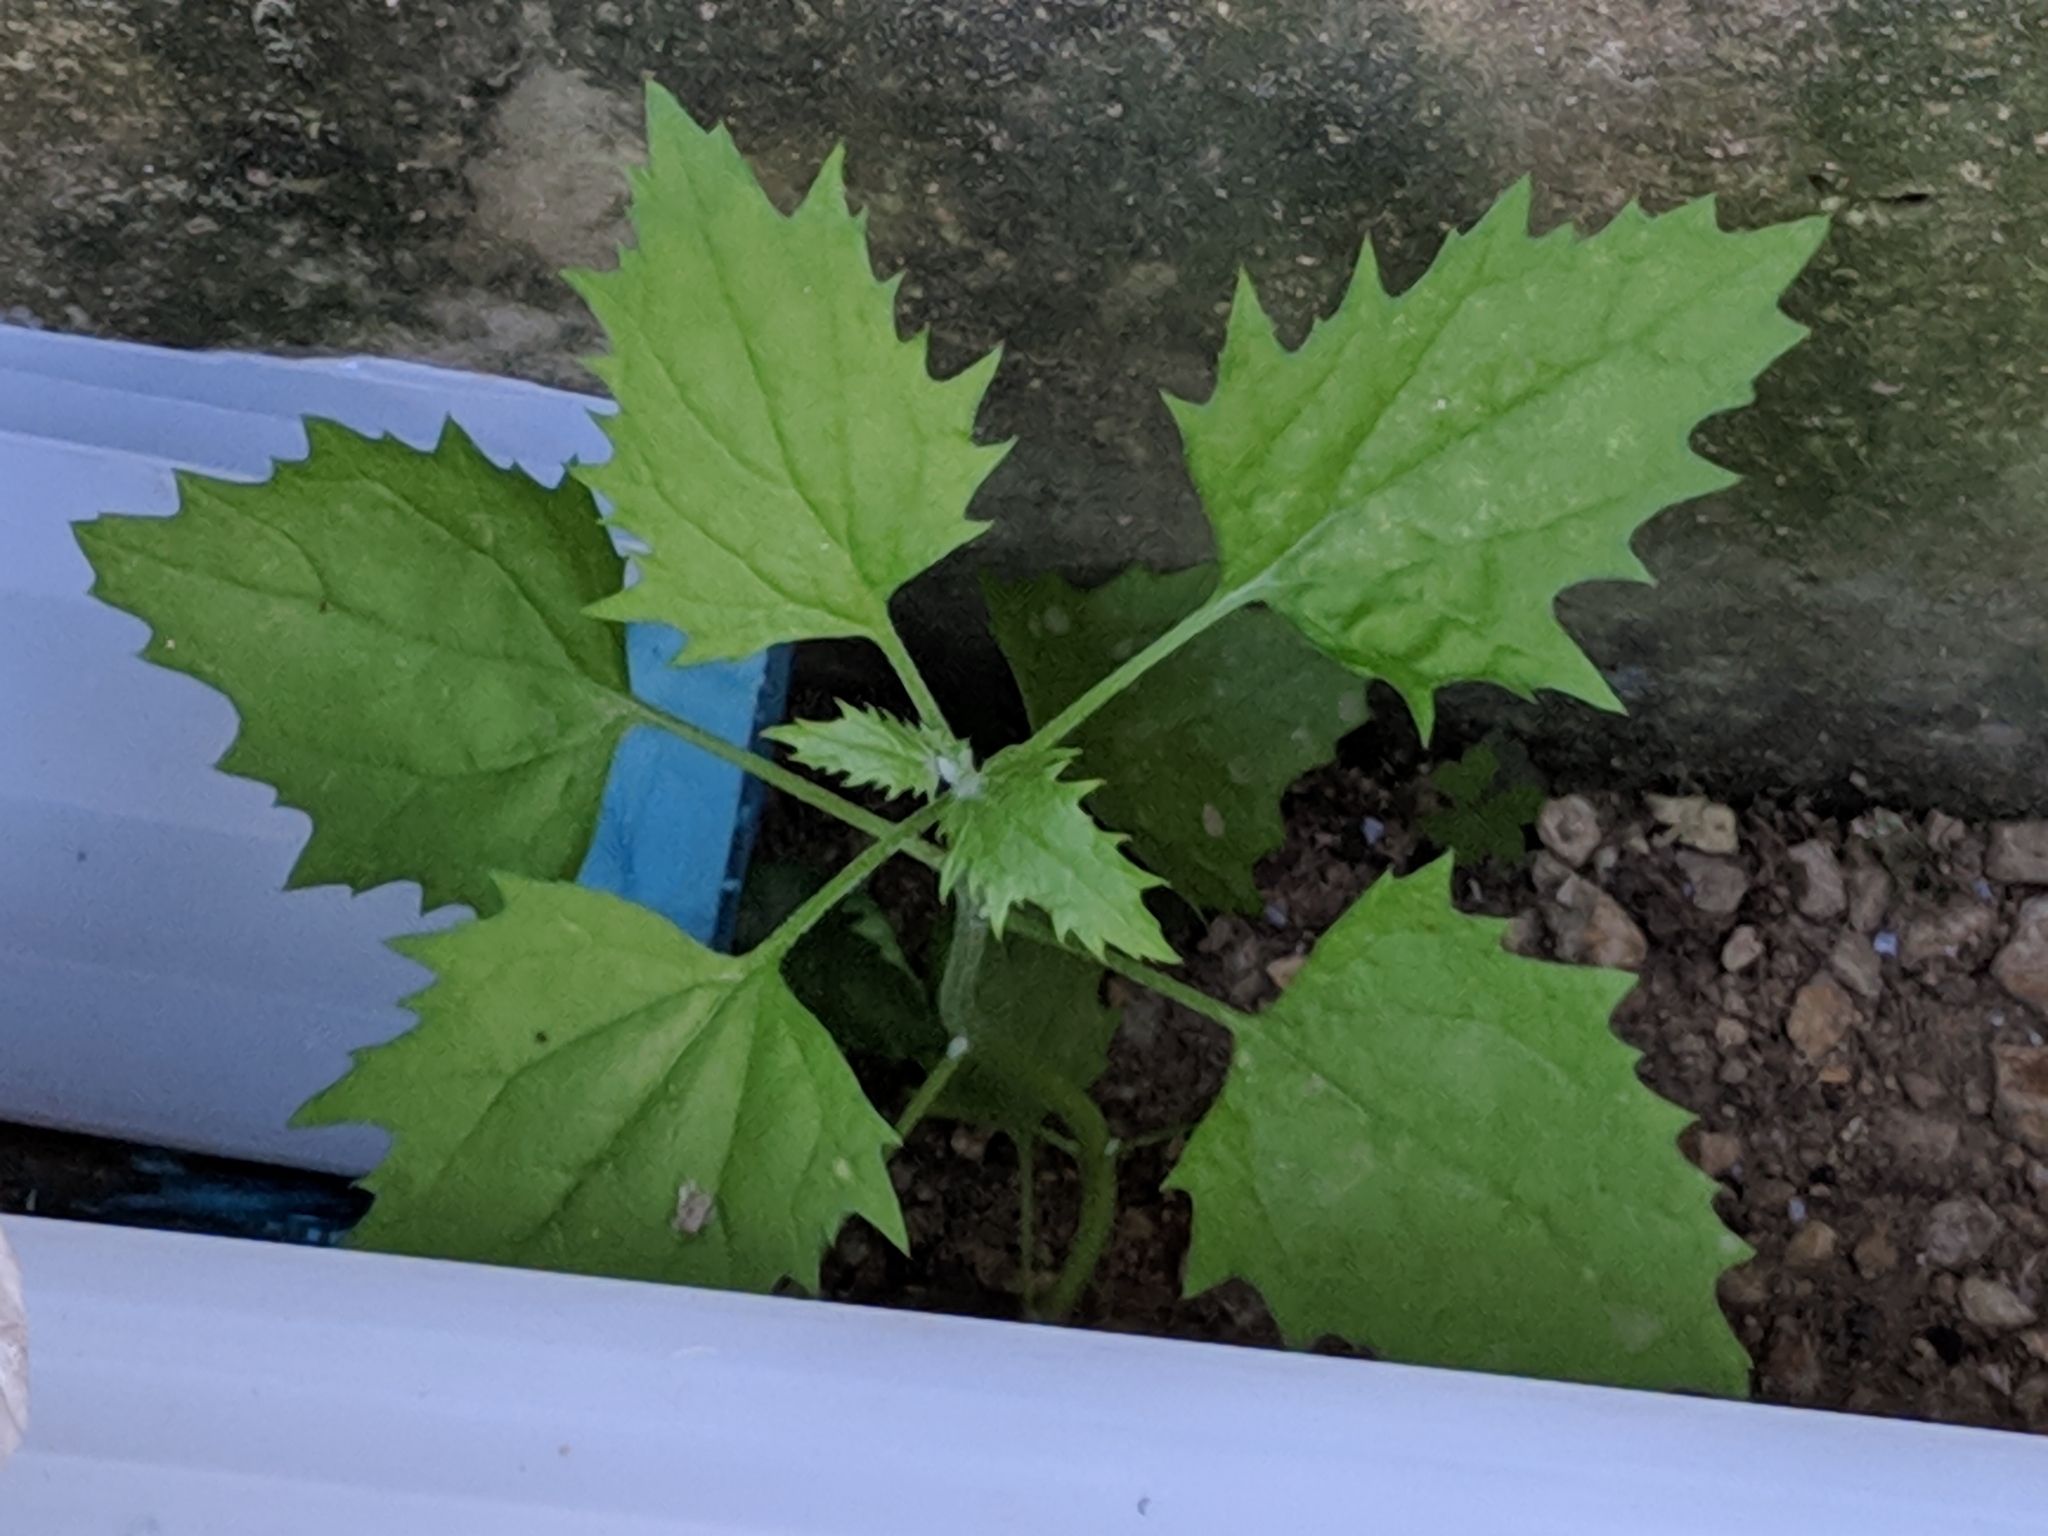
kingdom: Plantae
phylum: Tracheophyta
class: Magnoliopsida
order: Caryophyllales
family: Amaranthaceae
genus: Blitum
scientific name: Blitum virgatum
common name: Strawberry goosefoot
